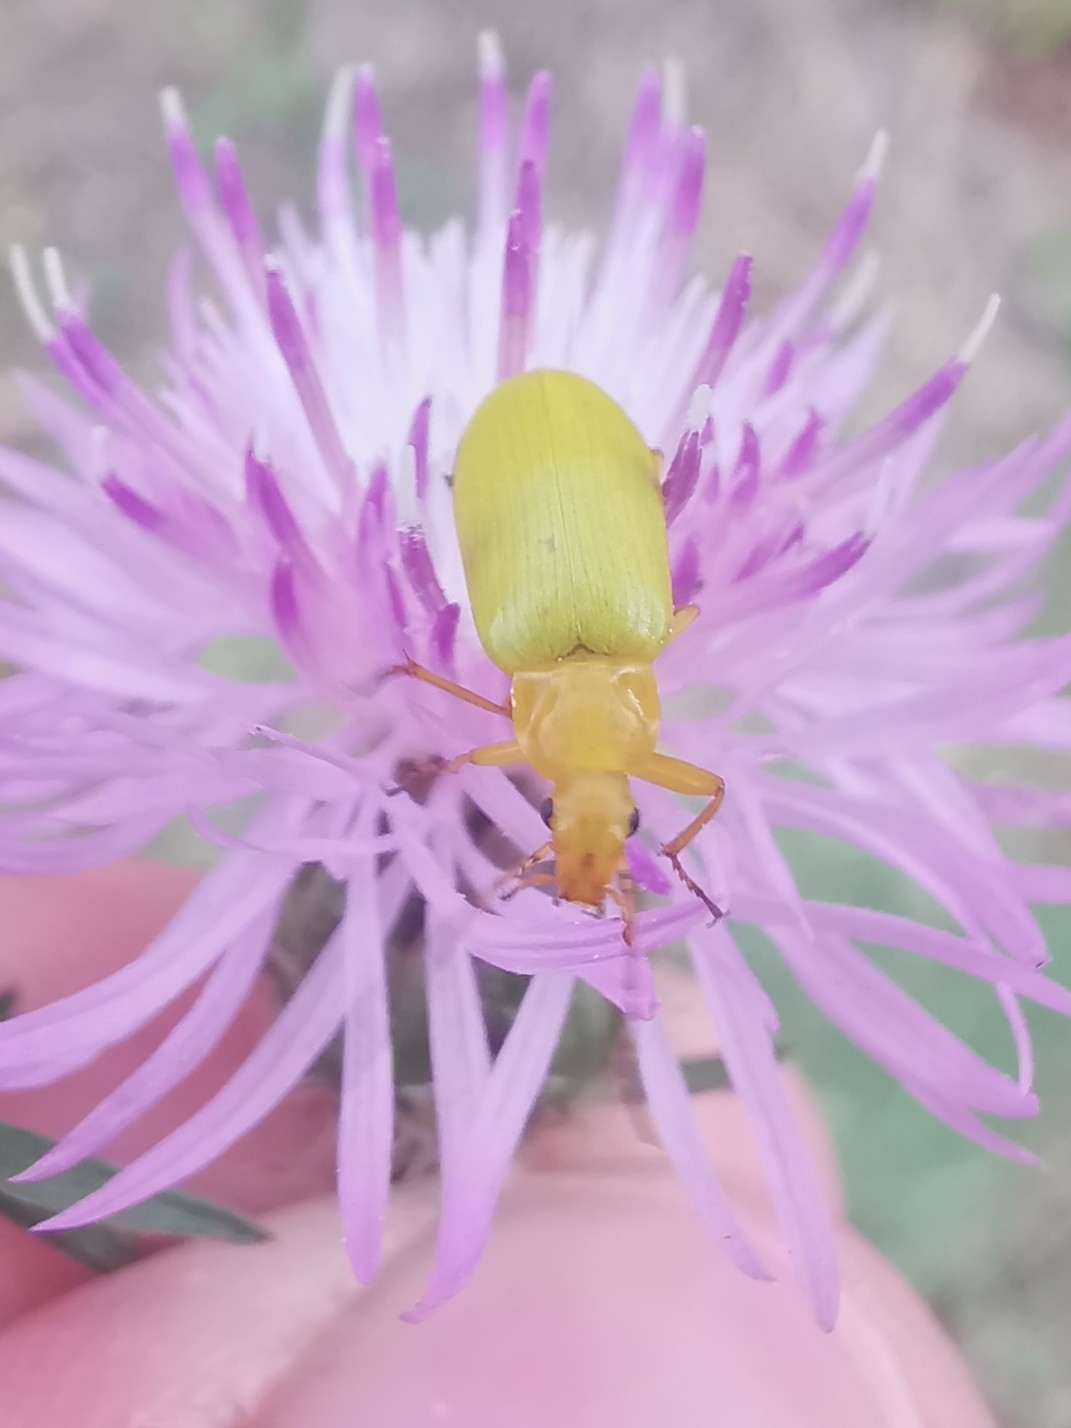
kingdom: Animalia
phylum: Arthropoda
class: Insecta
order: Coleoptera
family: Tenebrionidae
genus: Cteniopus
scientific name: Cteniopus sulphureus
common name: Sulphur beetle
